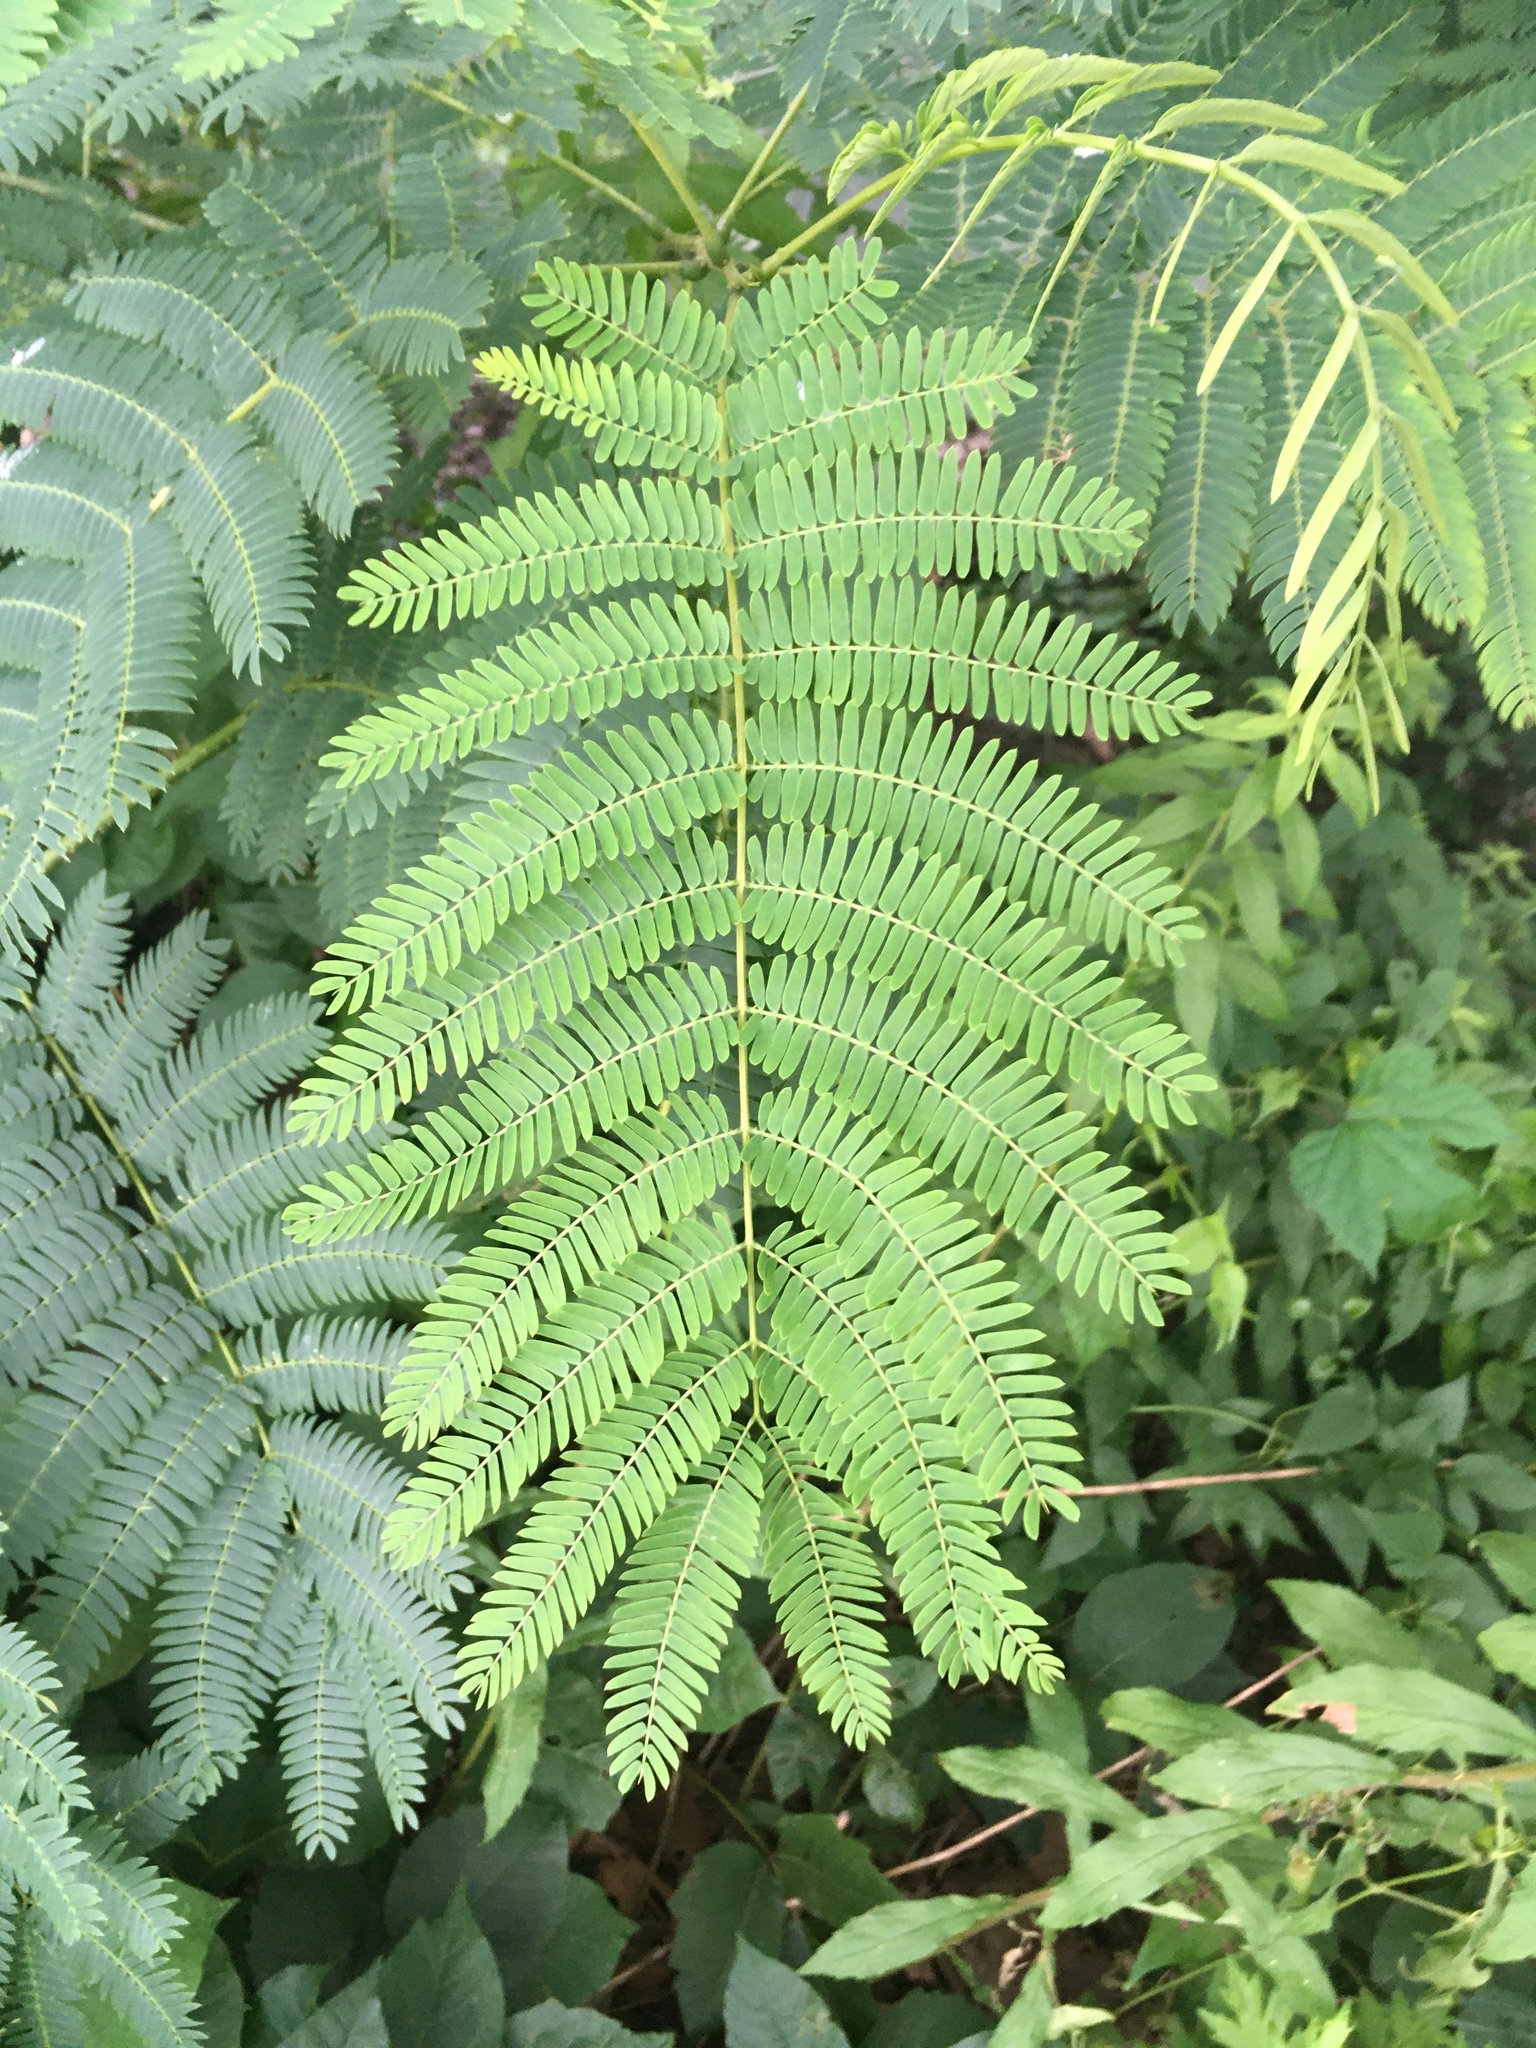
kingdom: Plantae
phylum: Tracheophyta
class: Magnoliopsida
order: Fabales
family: Fabaceae
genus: Albizia
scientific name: Albizia julibrissin
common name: Silktree
